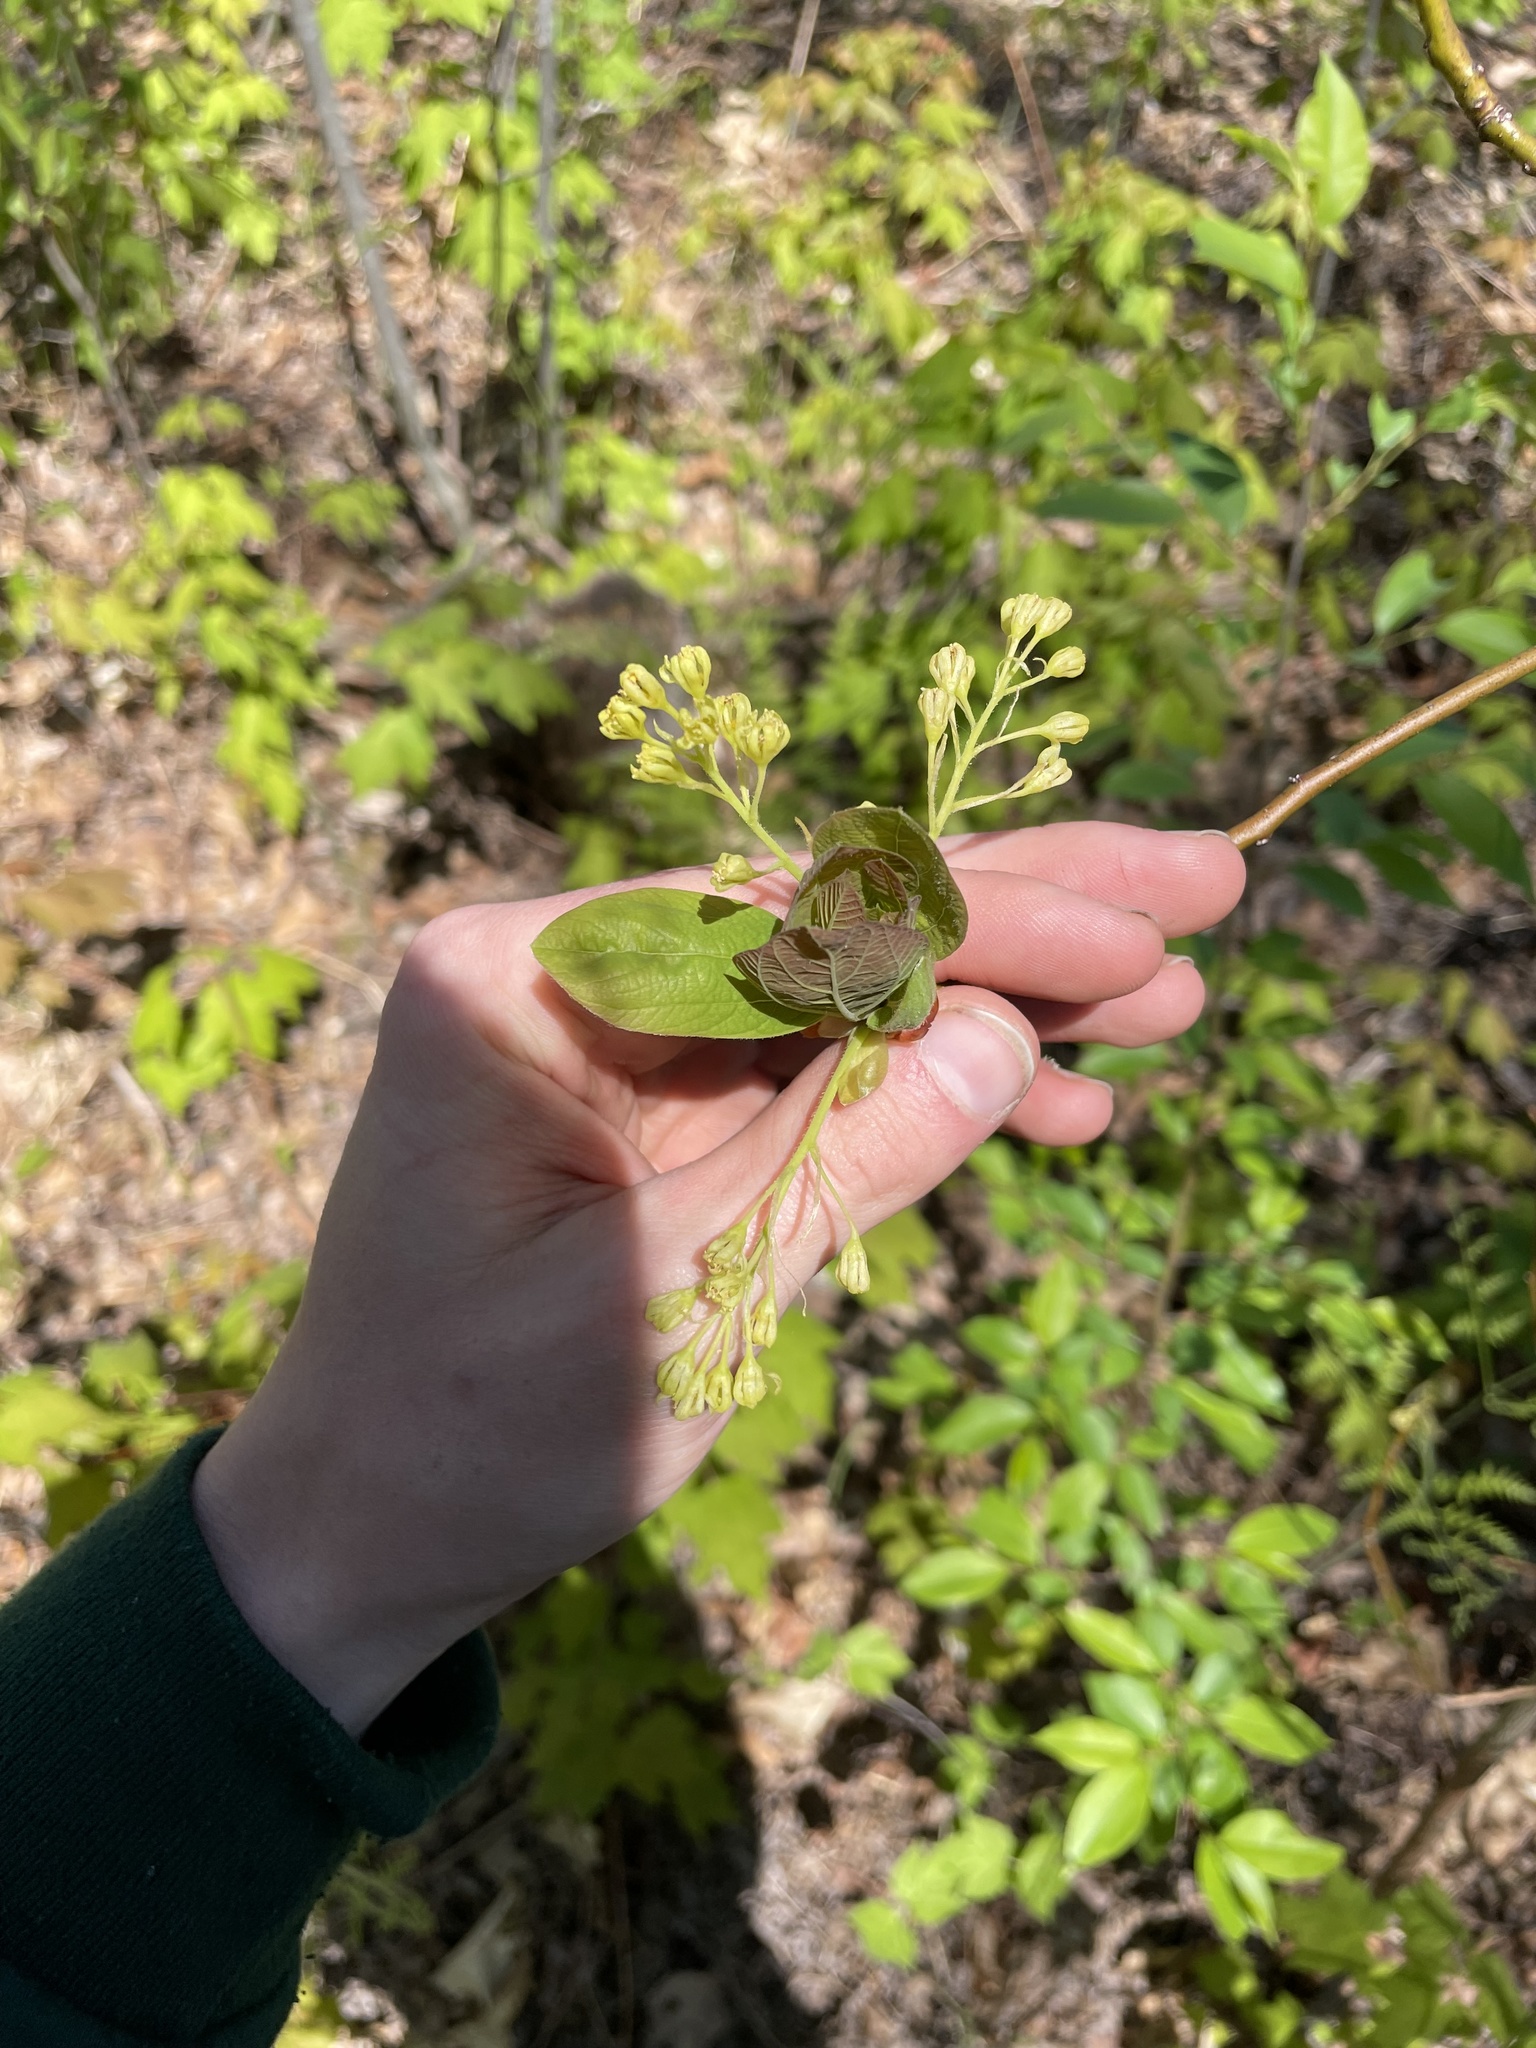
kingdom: Plantae
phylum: Tracheophyta
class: Magnoliopsida
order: Laurales
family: Lauraceae
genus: Sassafras
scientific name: Sassafras albidum
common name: Sassafras
